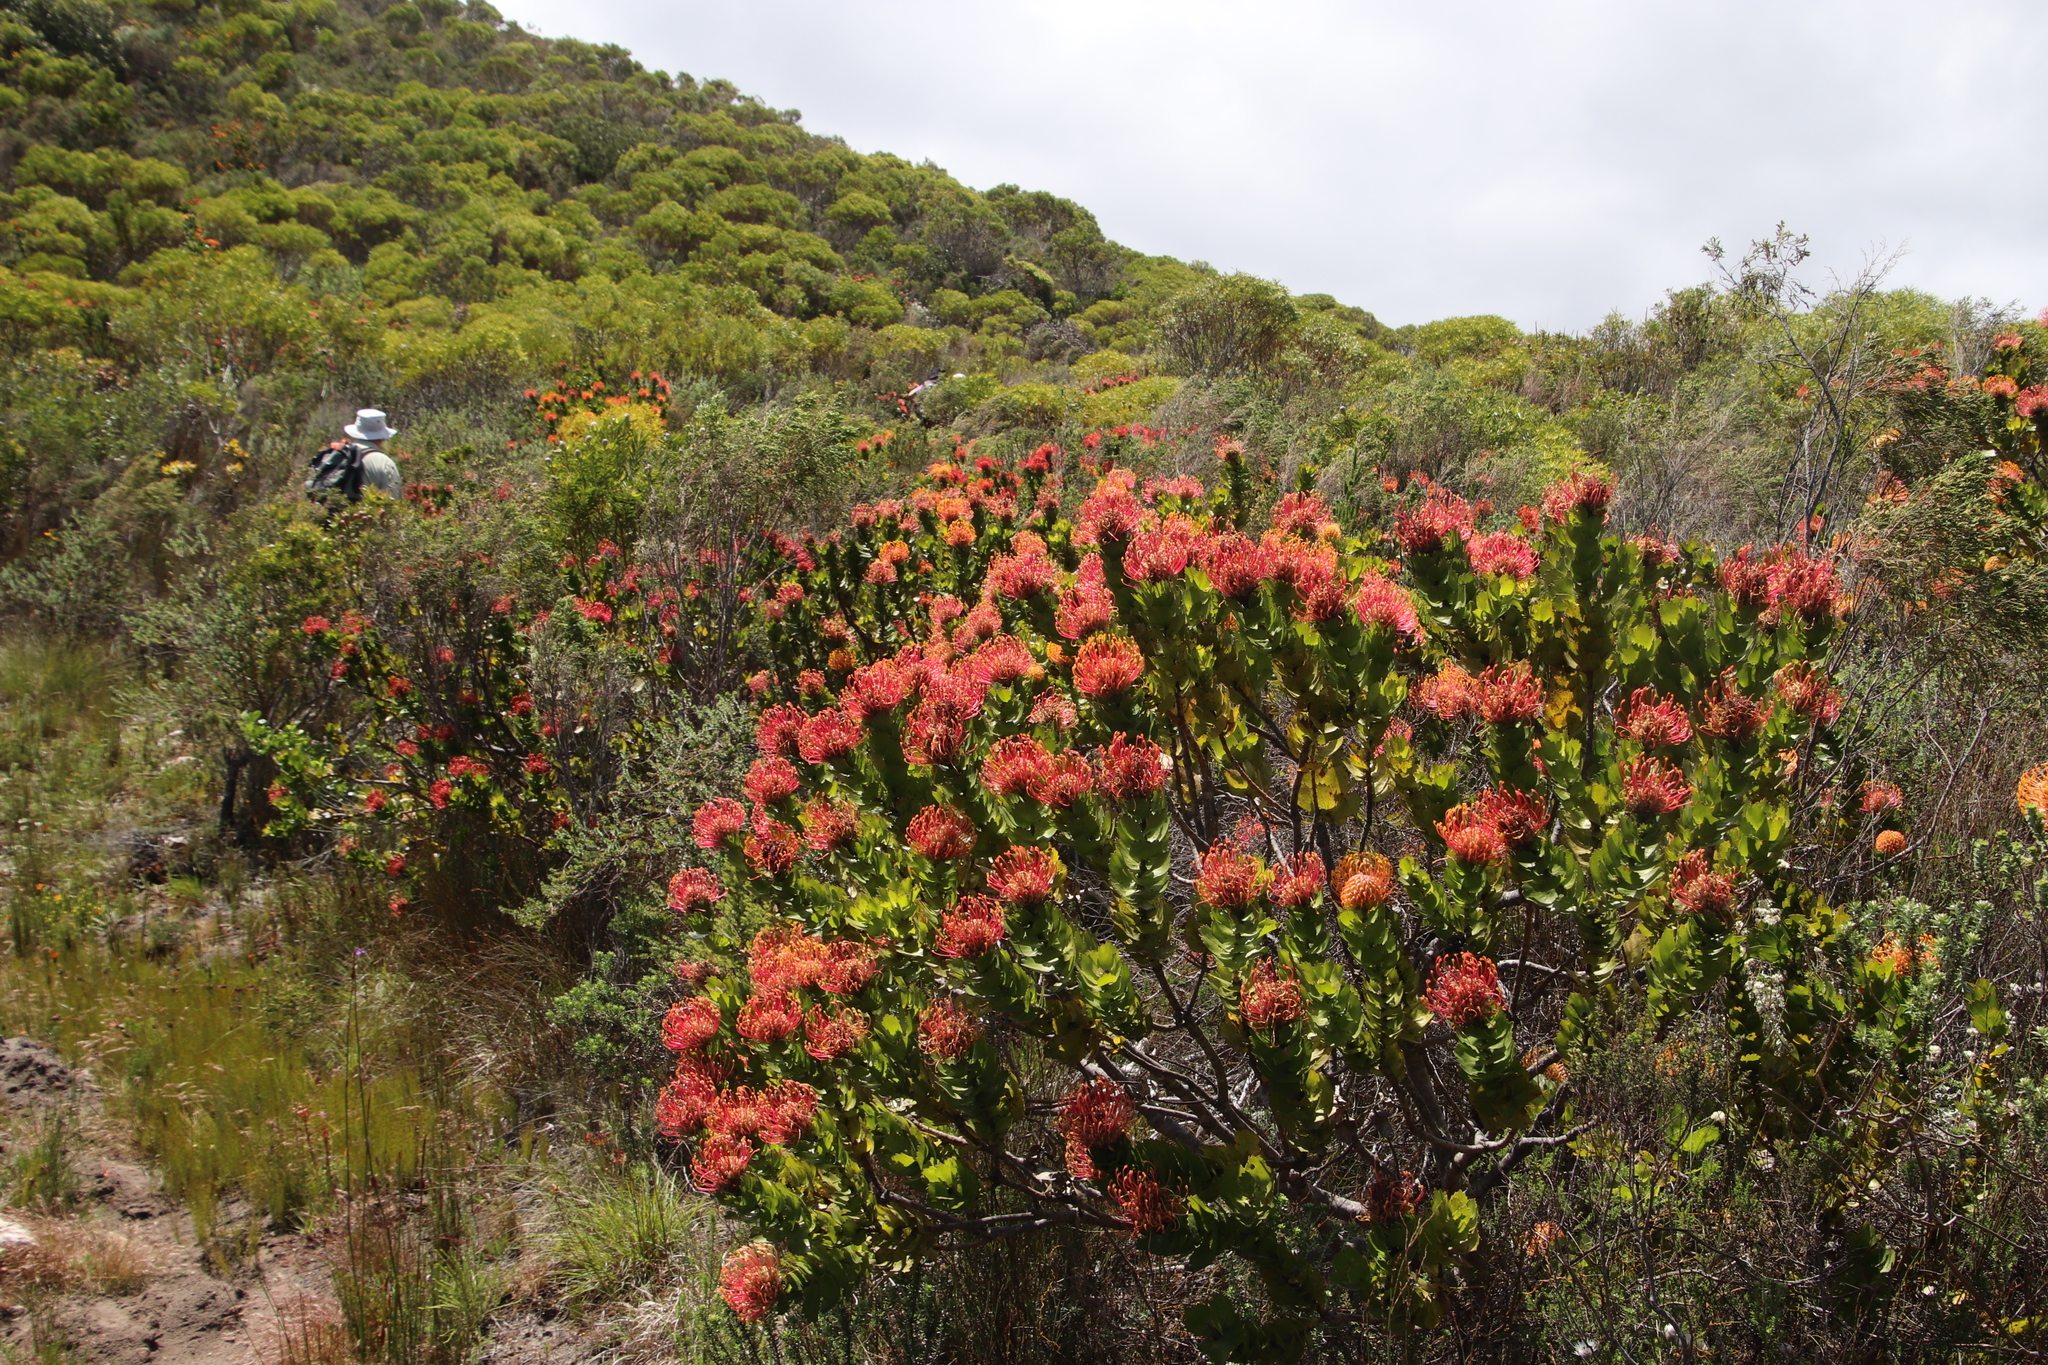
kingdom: Plantae
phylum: Tracheophyta
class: Magnoliopsida
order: Proteales
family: Proteaceae
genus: Leucospermum
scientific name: Leucospermum patersonii
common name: False tree pincushion
